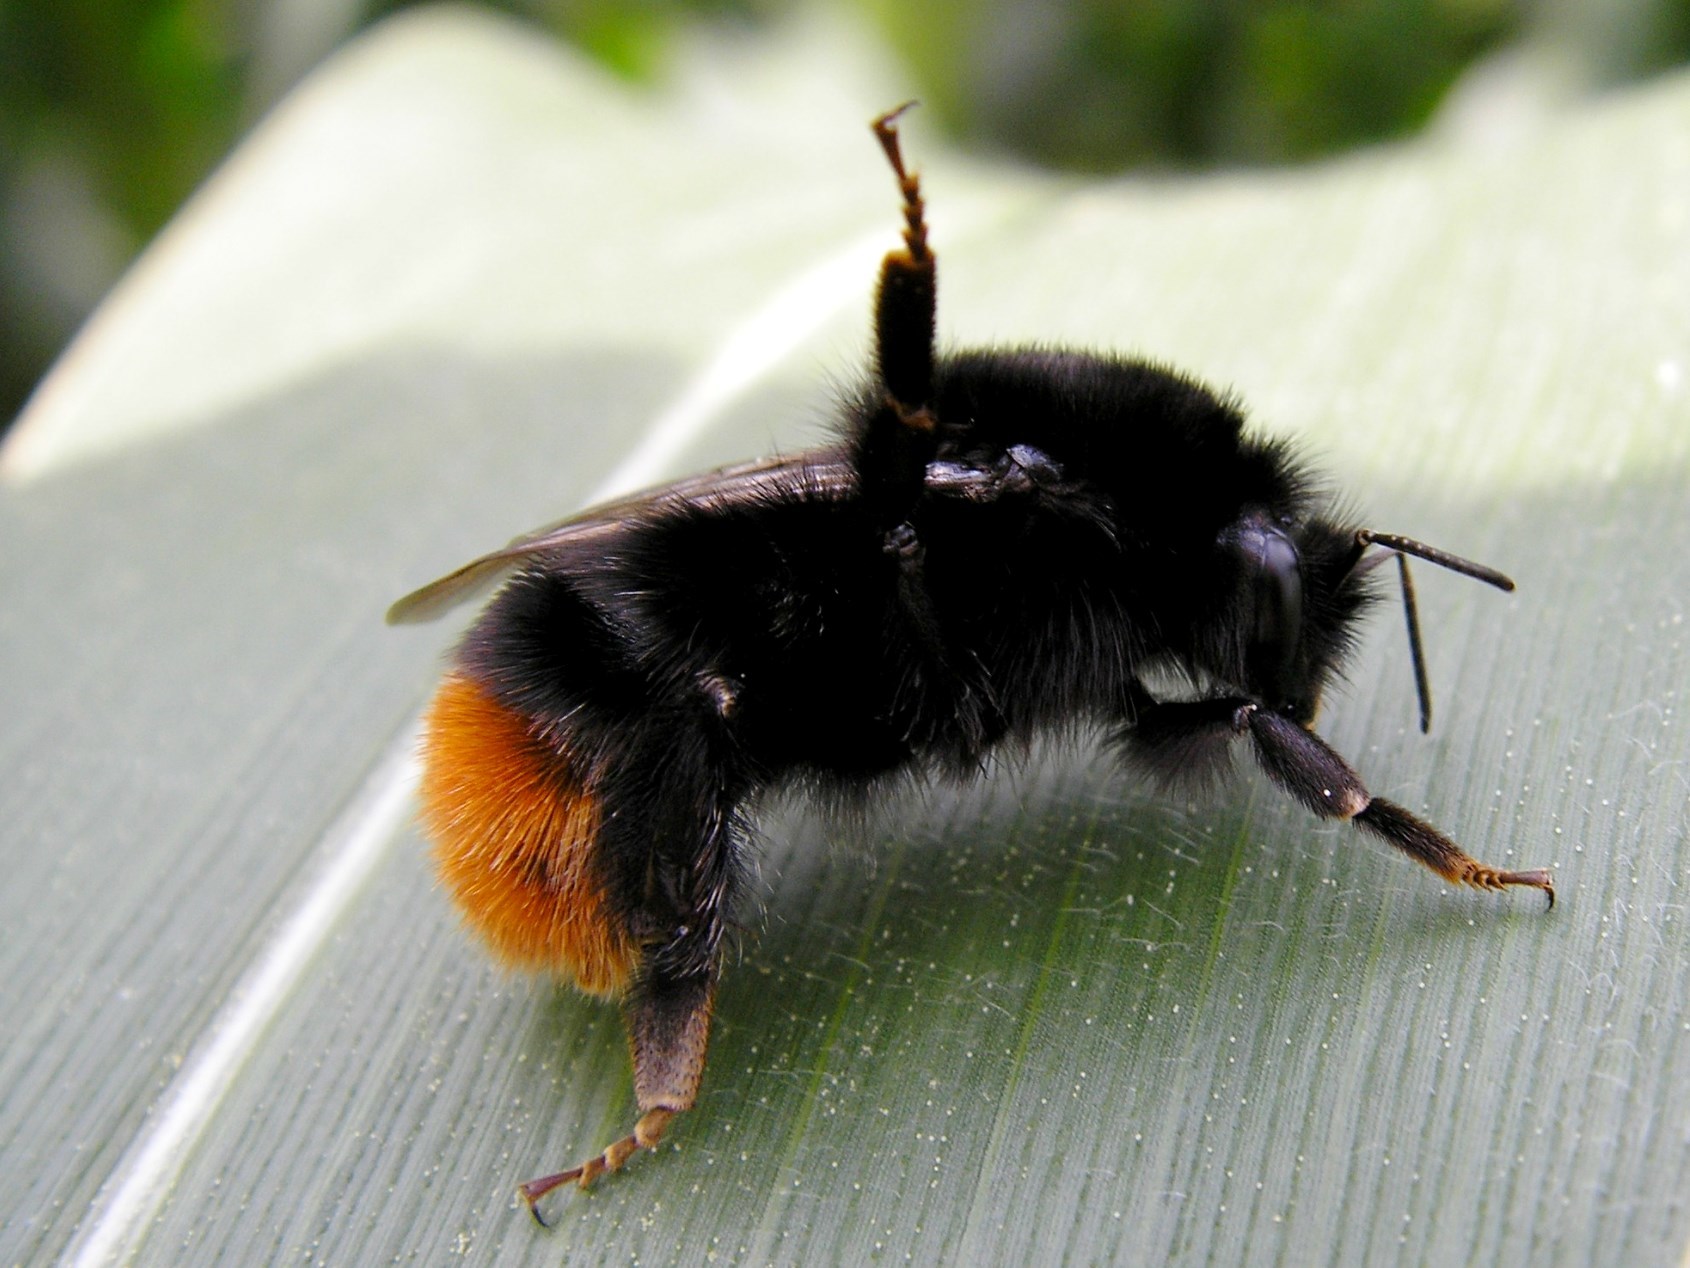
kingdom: Animalia
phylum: Arthropoda
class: Insecta
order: Hymenoptera
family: Apidae
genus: Bombus
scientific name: Bombus lapidarius
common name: Large red-tailed humble-bee
